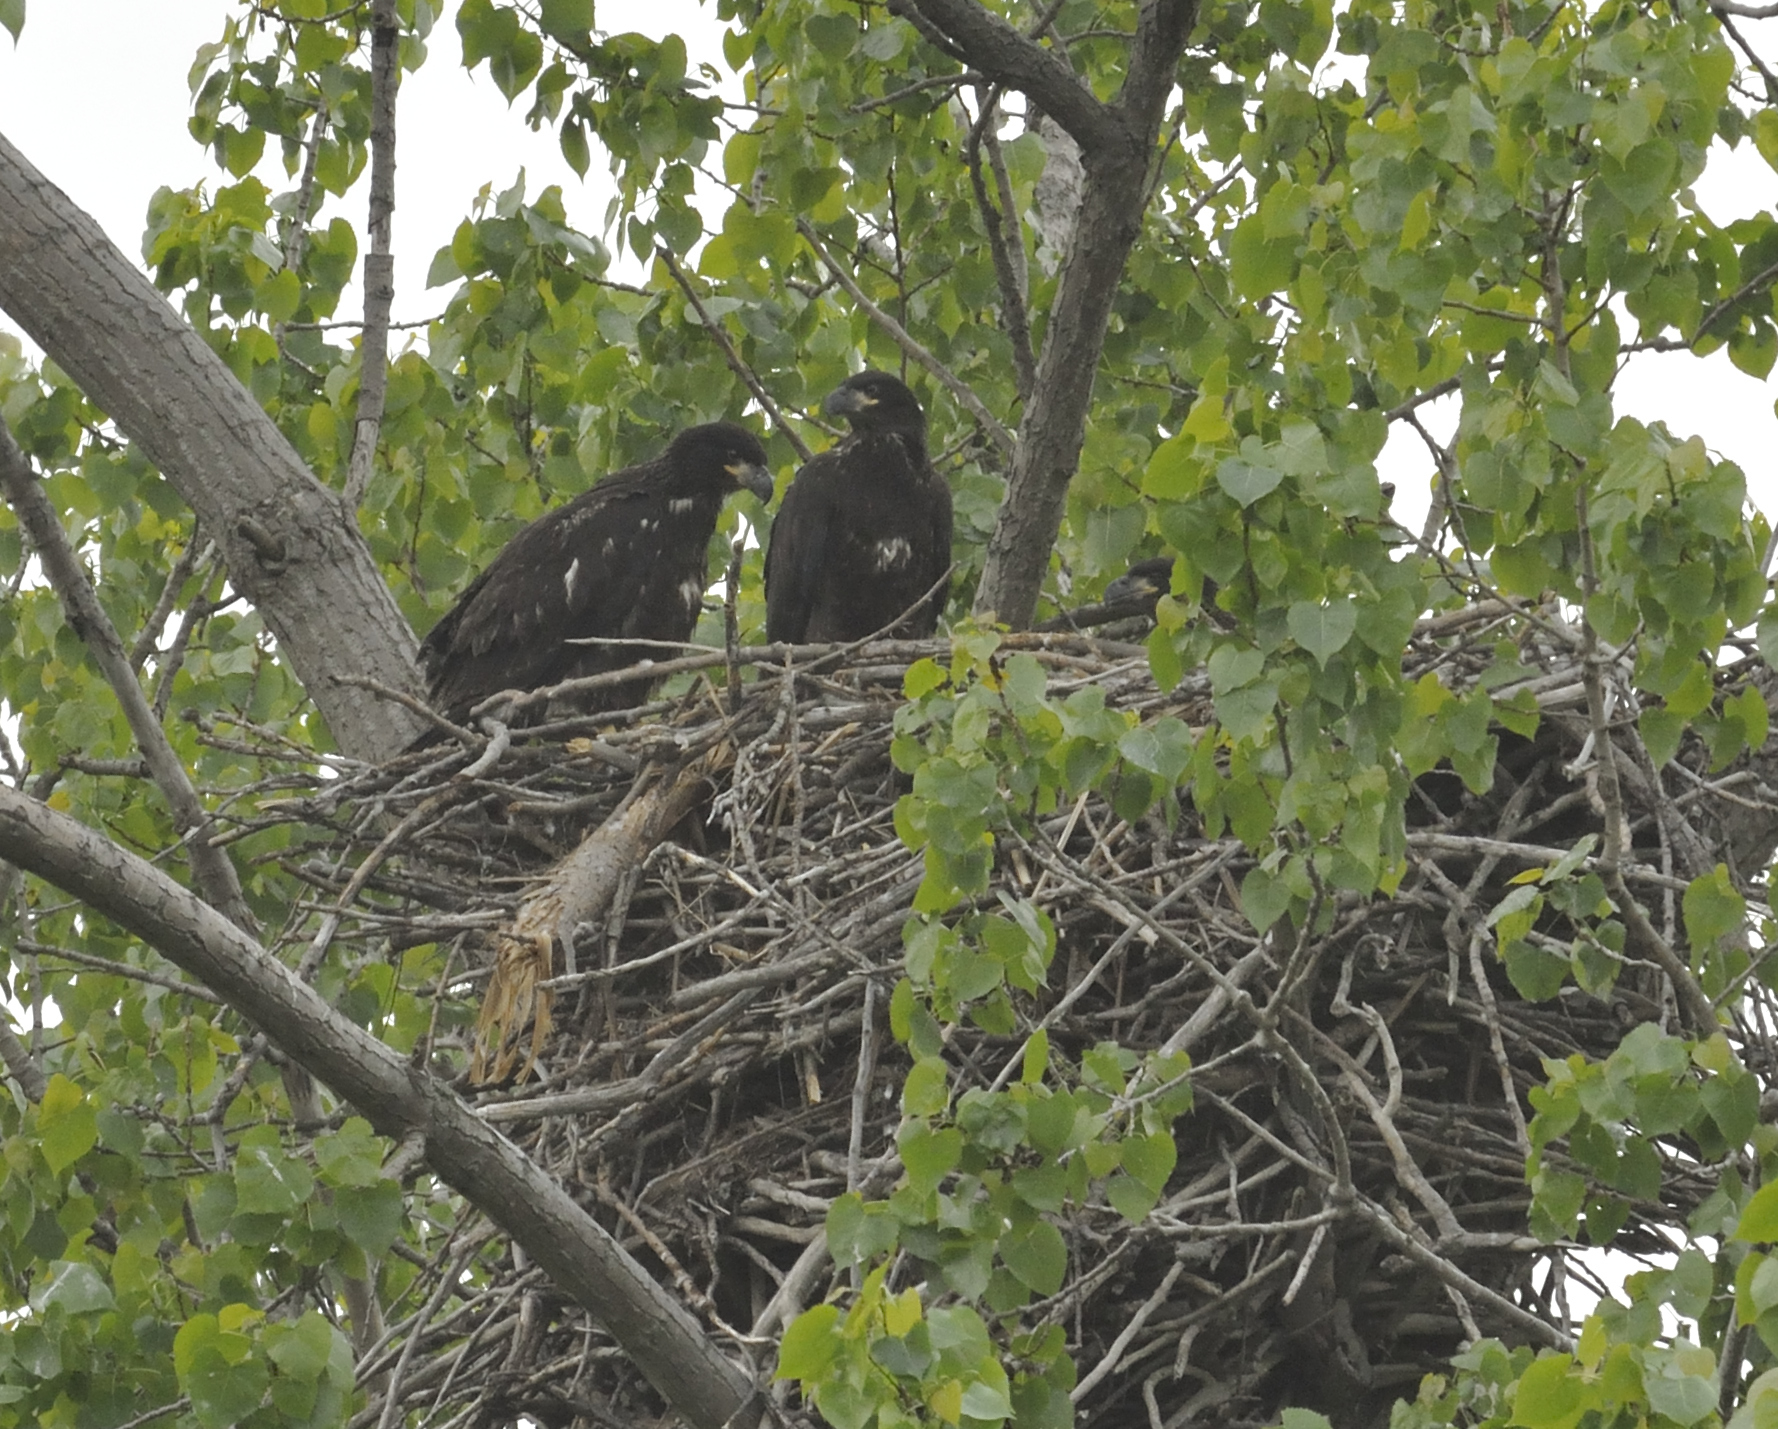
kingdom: Animalia
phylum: Chordata
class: Aves
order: Accipitriformes
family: Accipitridae
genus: Haliaeetus
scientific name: Haliaeetus leucocephalus
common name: Bald eagle
